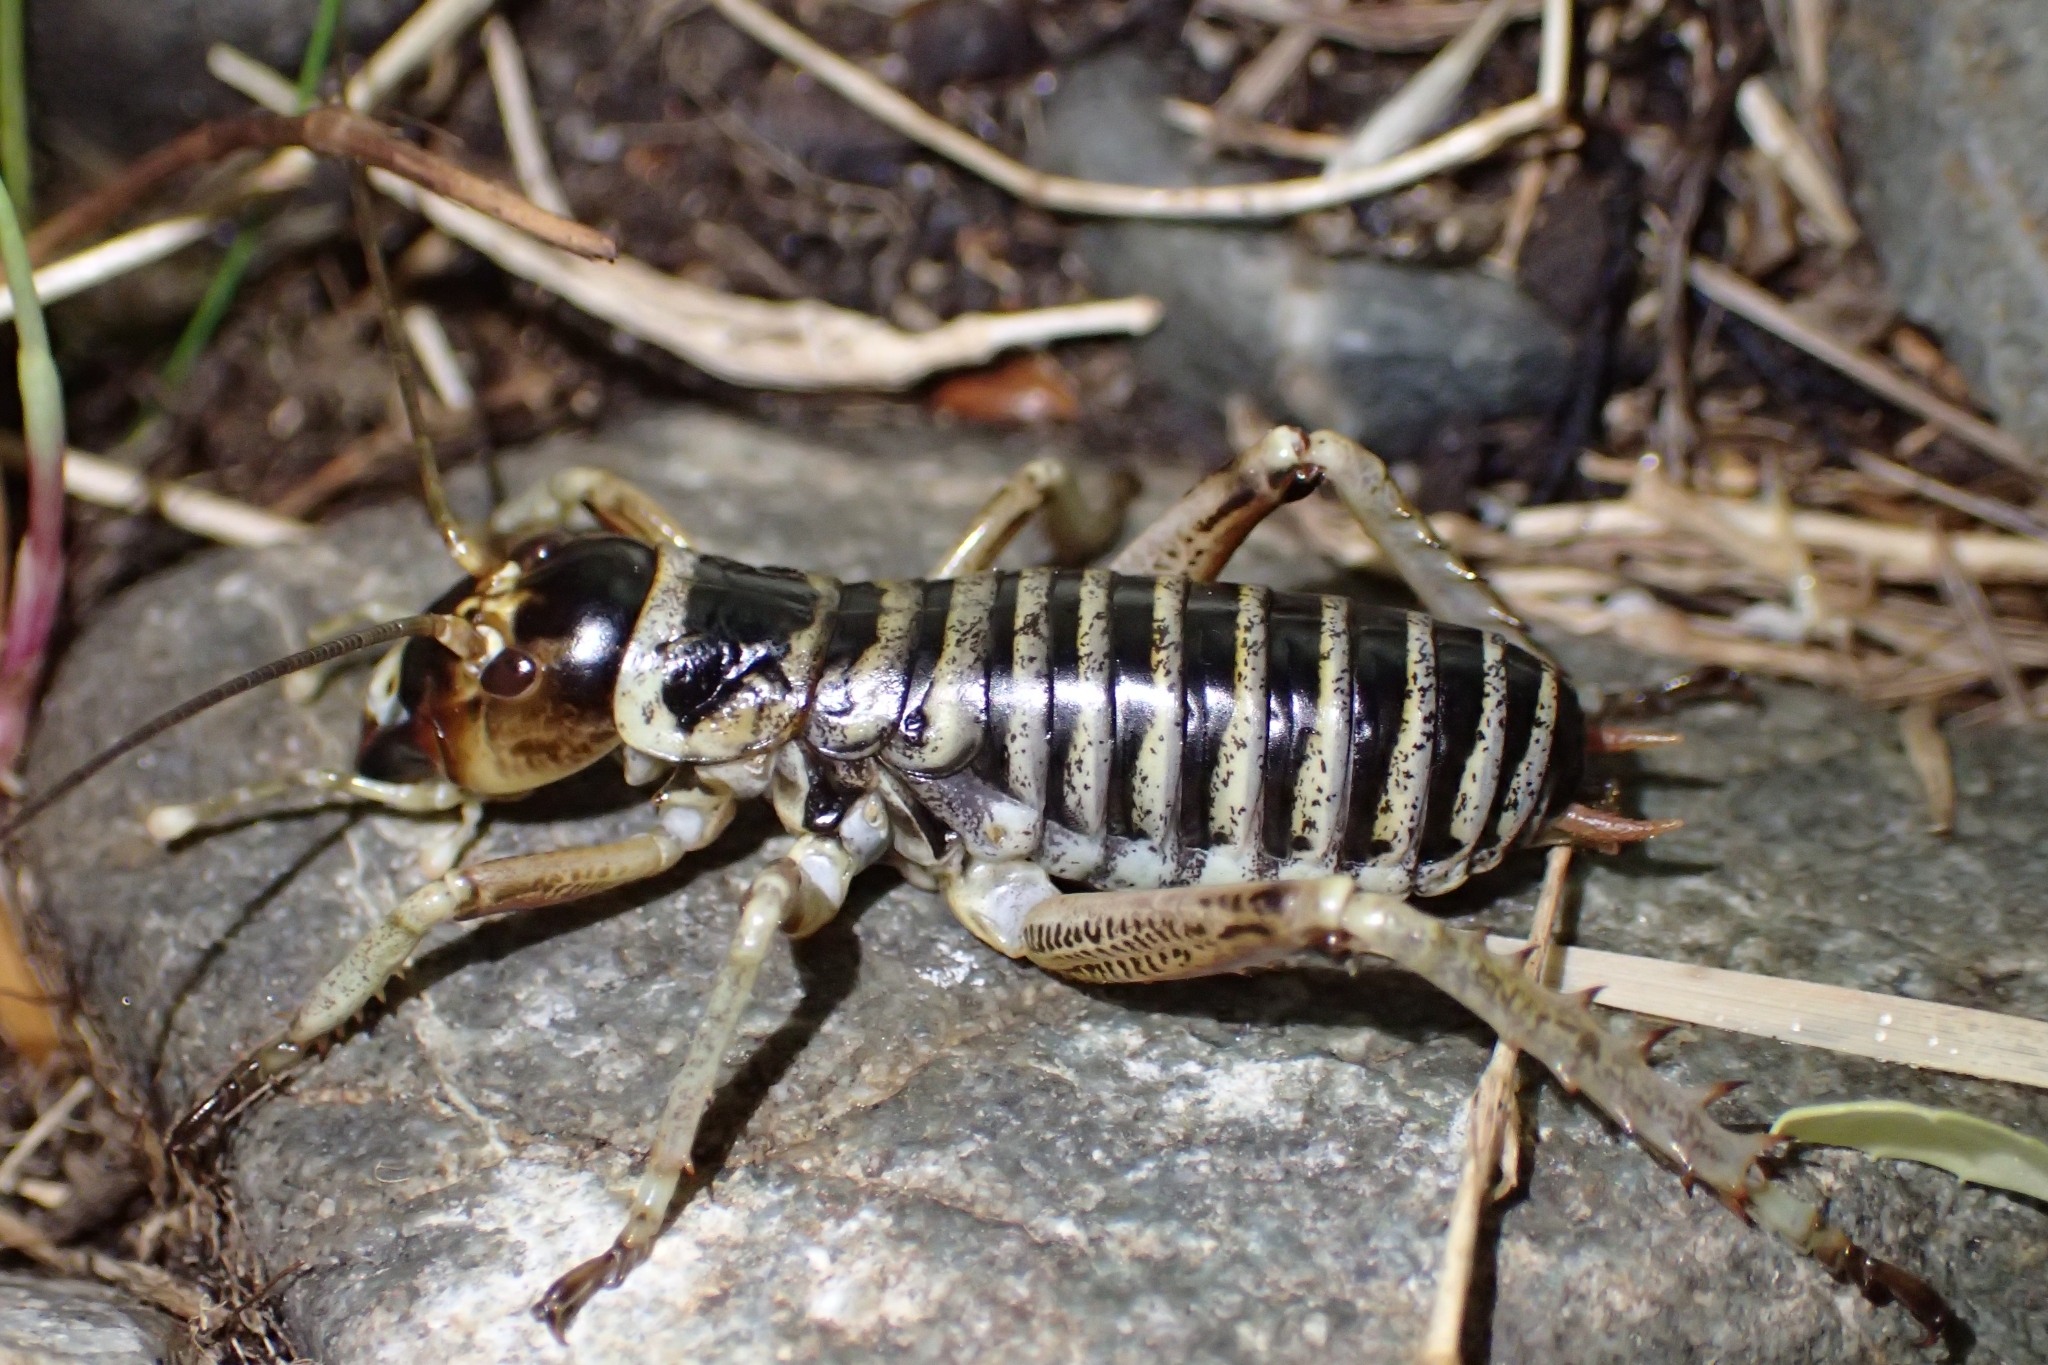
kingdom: Animalia
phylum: Arthropoda
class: Insecta
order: Orthoptera
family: Anostostomatidae
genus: Hemideina
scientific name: Hemideina maori
